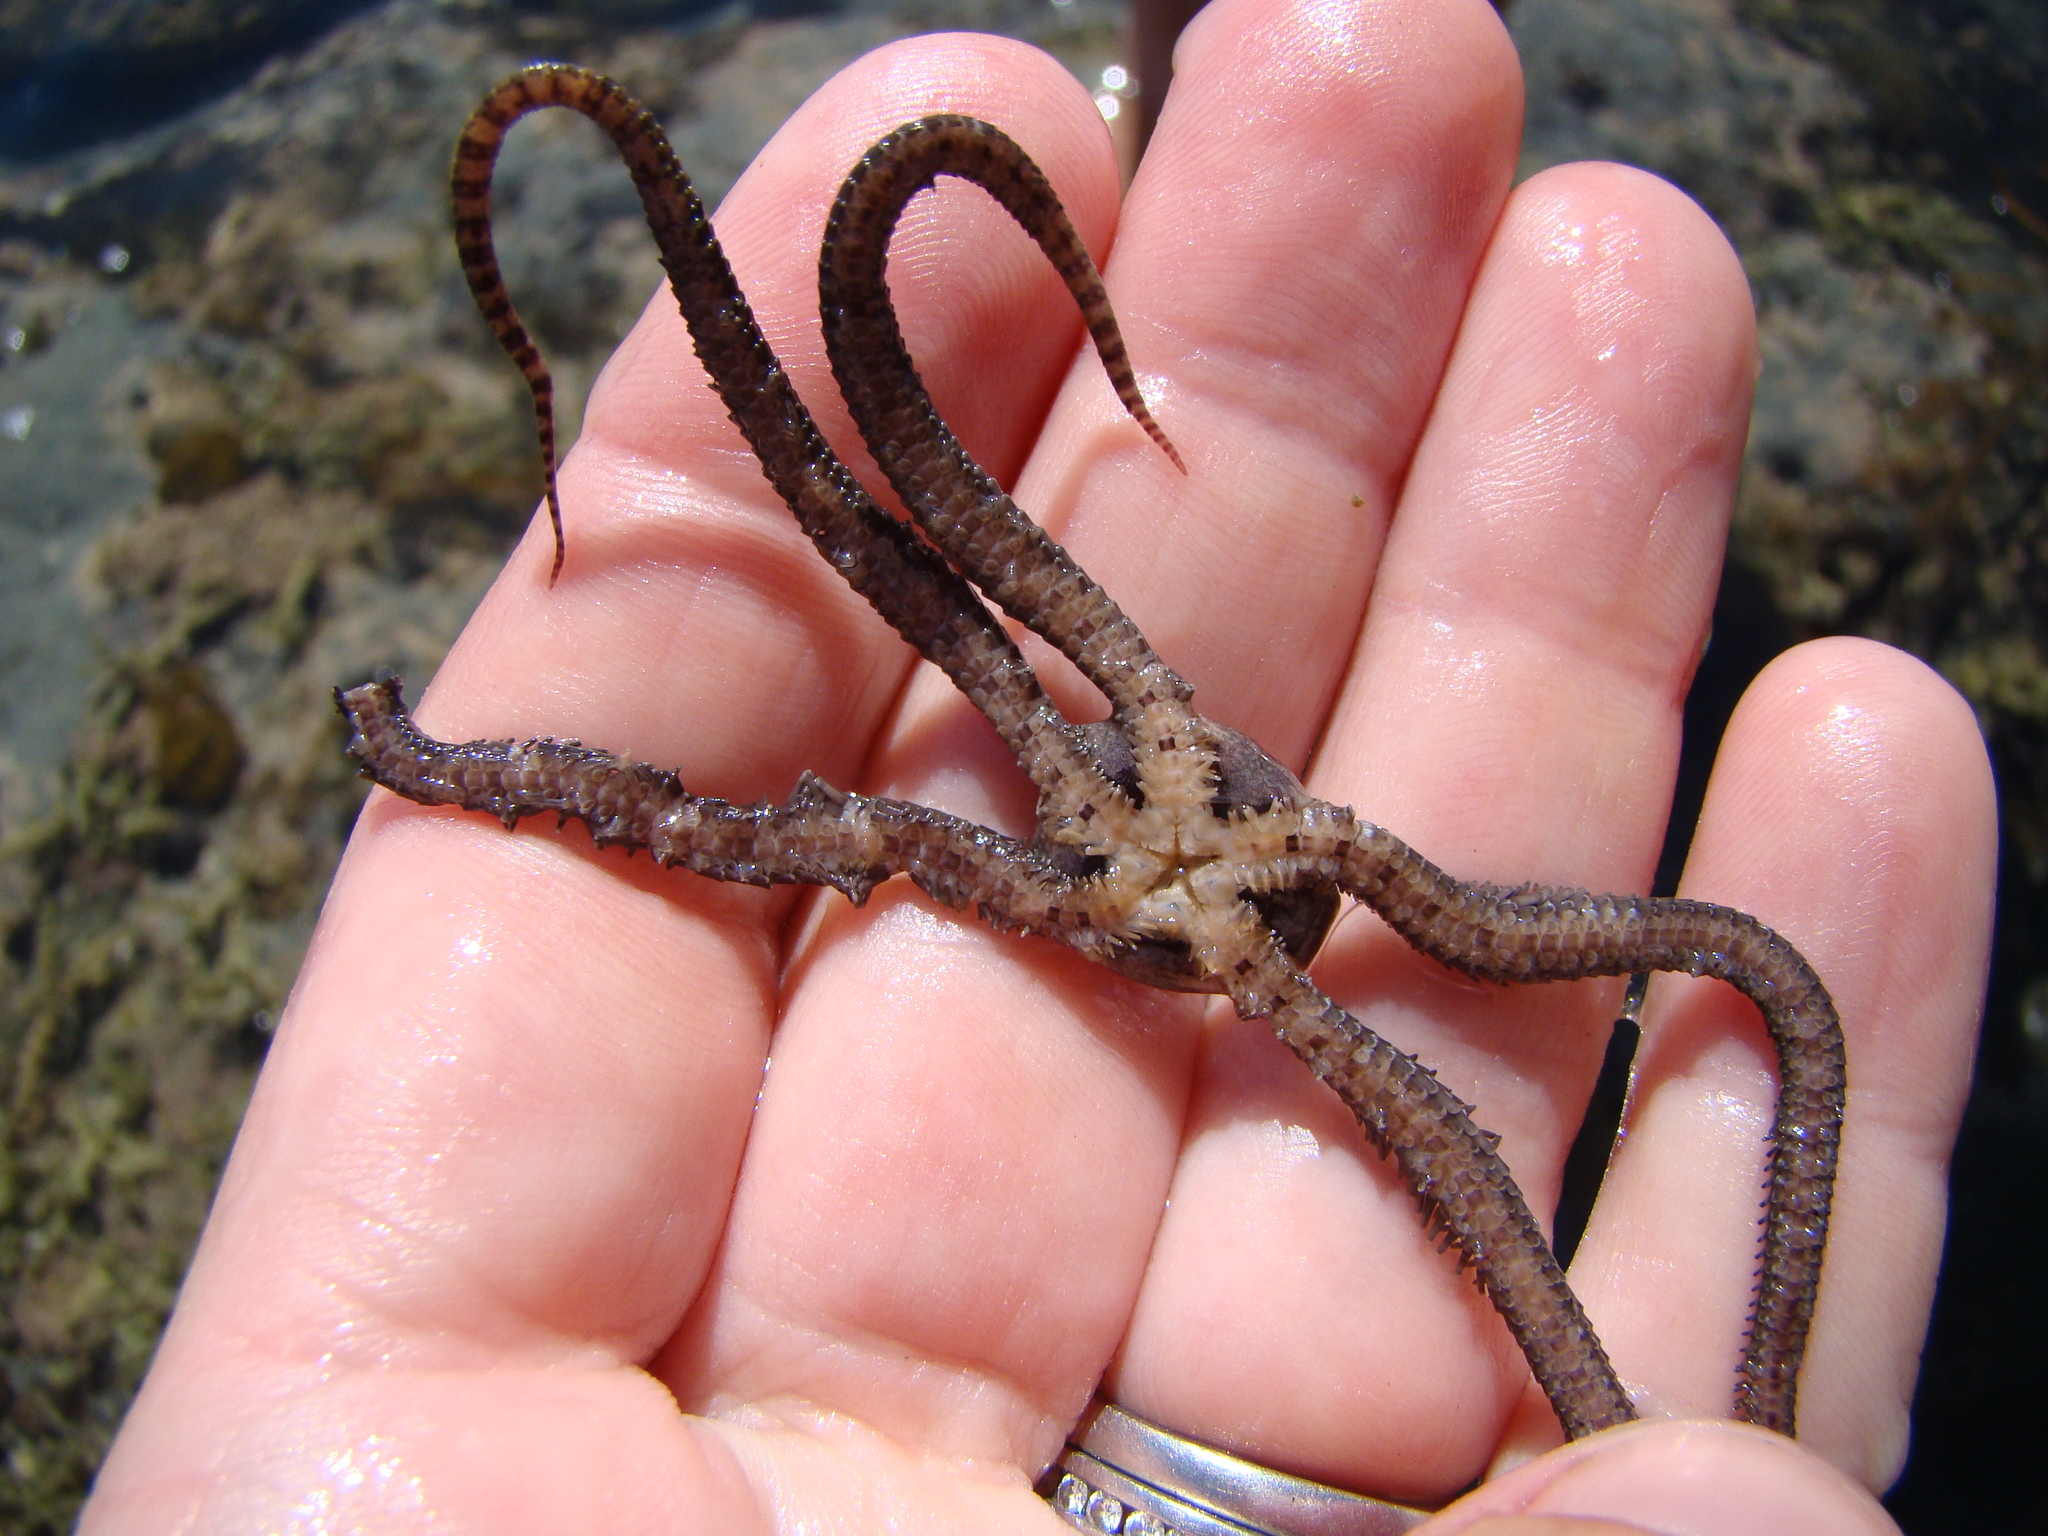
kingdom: Animalia
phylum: Echinodermata
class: Ophiuroidea
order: Amphilepidida
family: Ophionereididae
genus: Ophionereis
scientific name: Ophionereis fasciata
